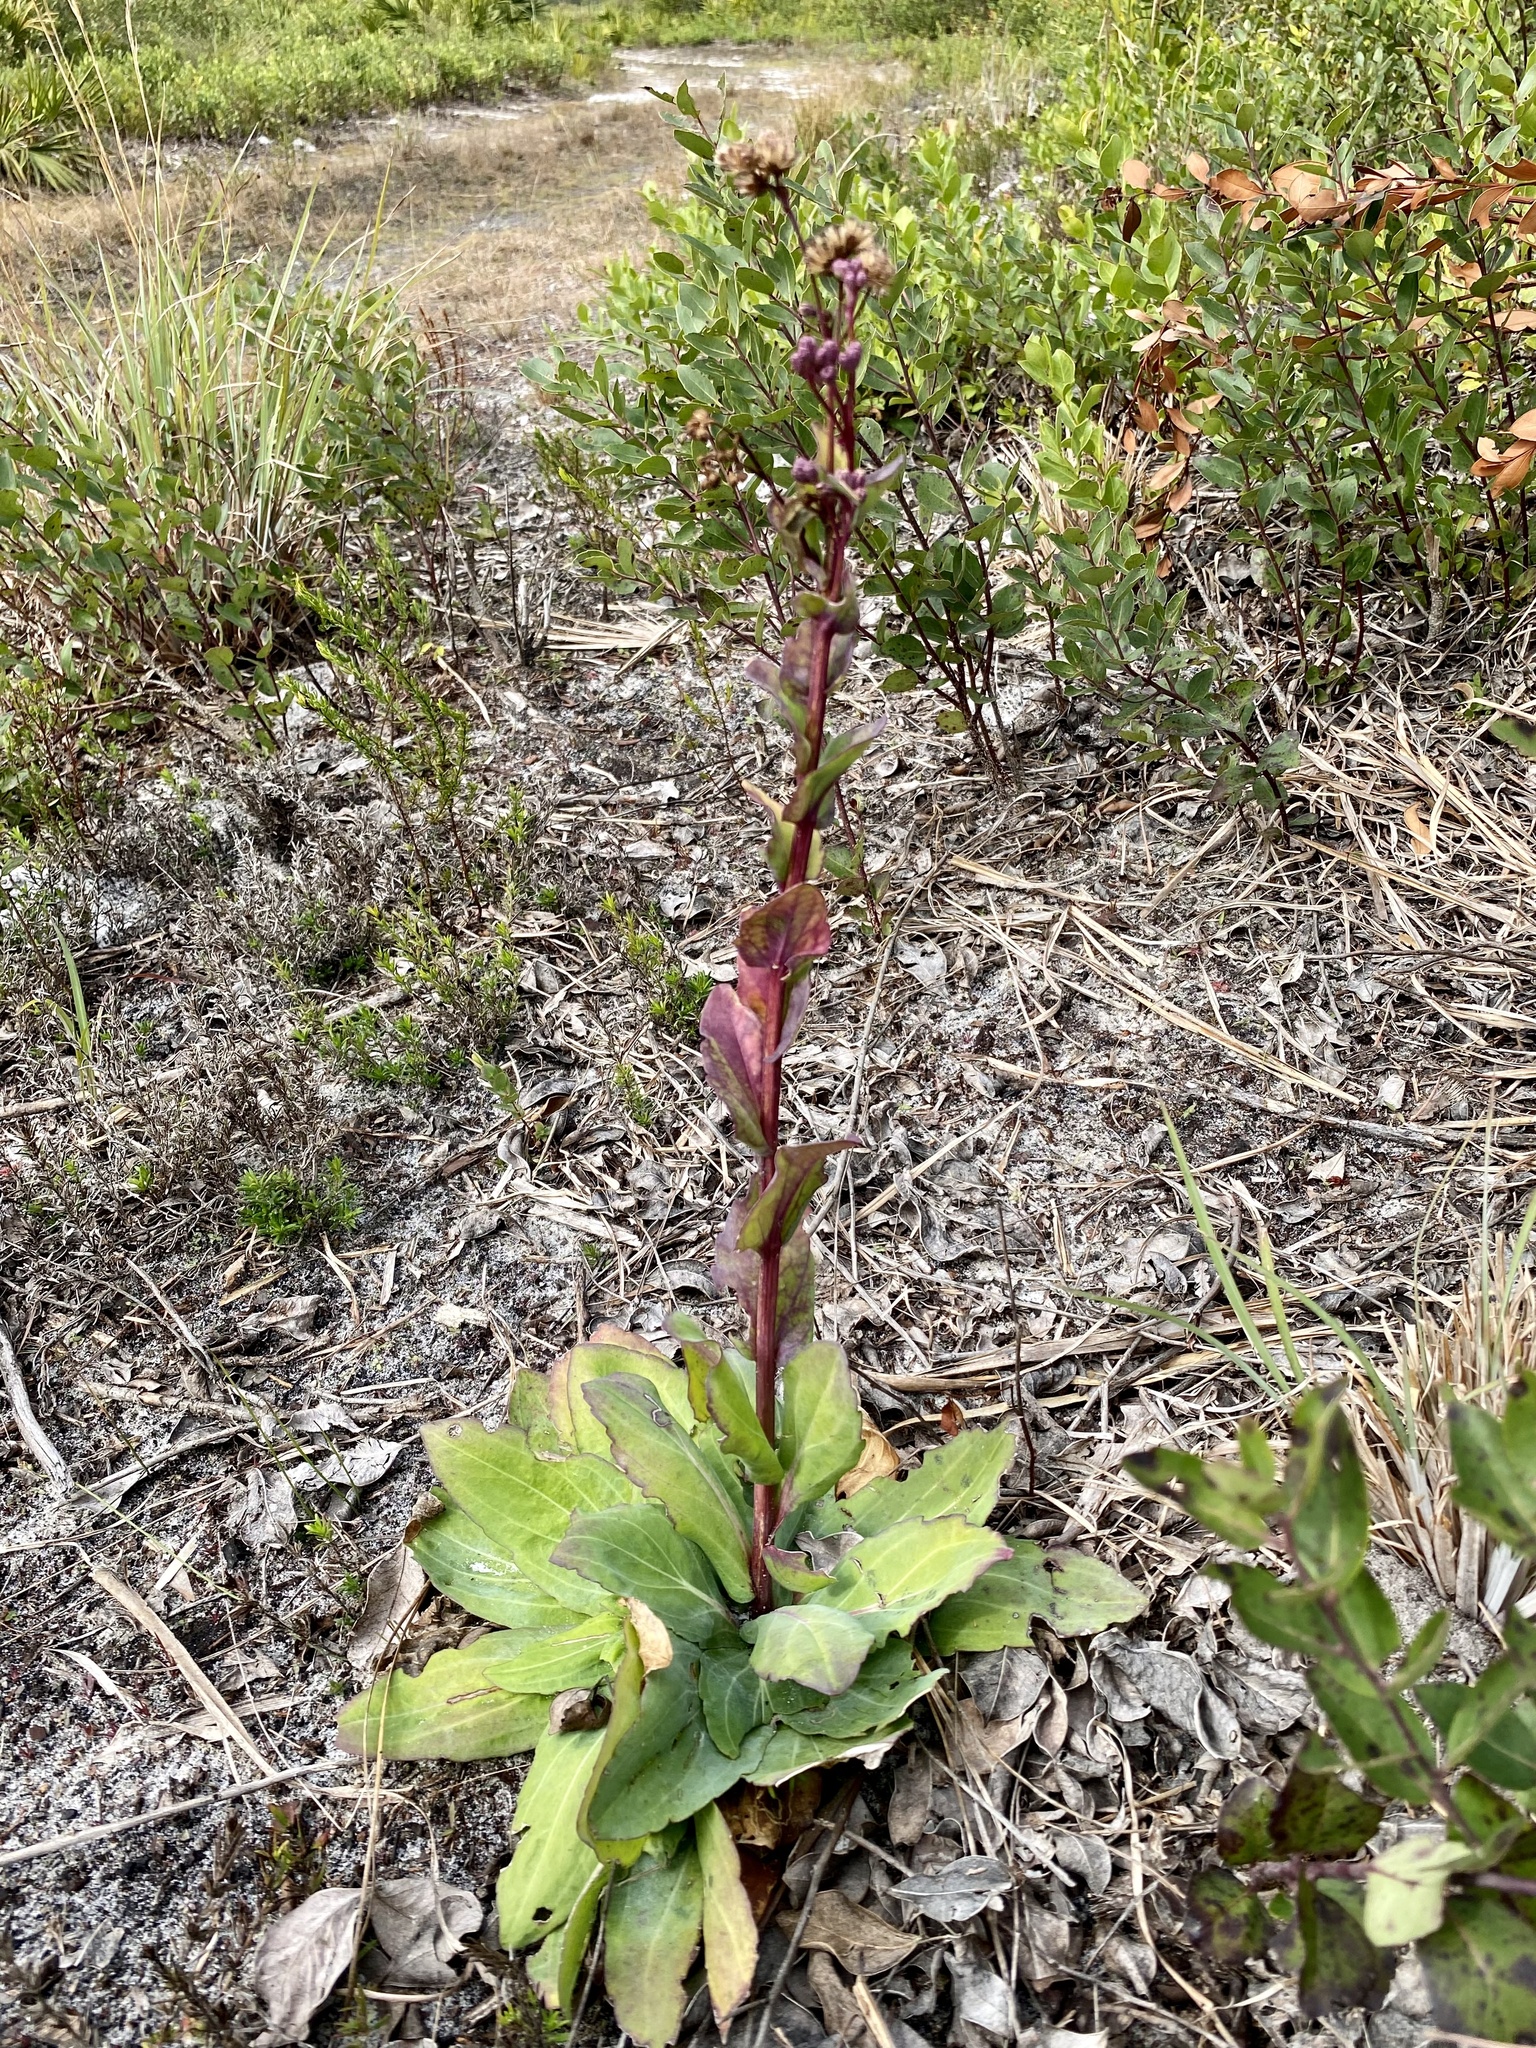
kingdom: Plantae
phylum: Tracheophyta
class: Magnoliopsida
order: Asterales
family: Asteraceae
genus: Carphephorus
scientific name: Carphephorus odoratissimus
